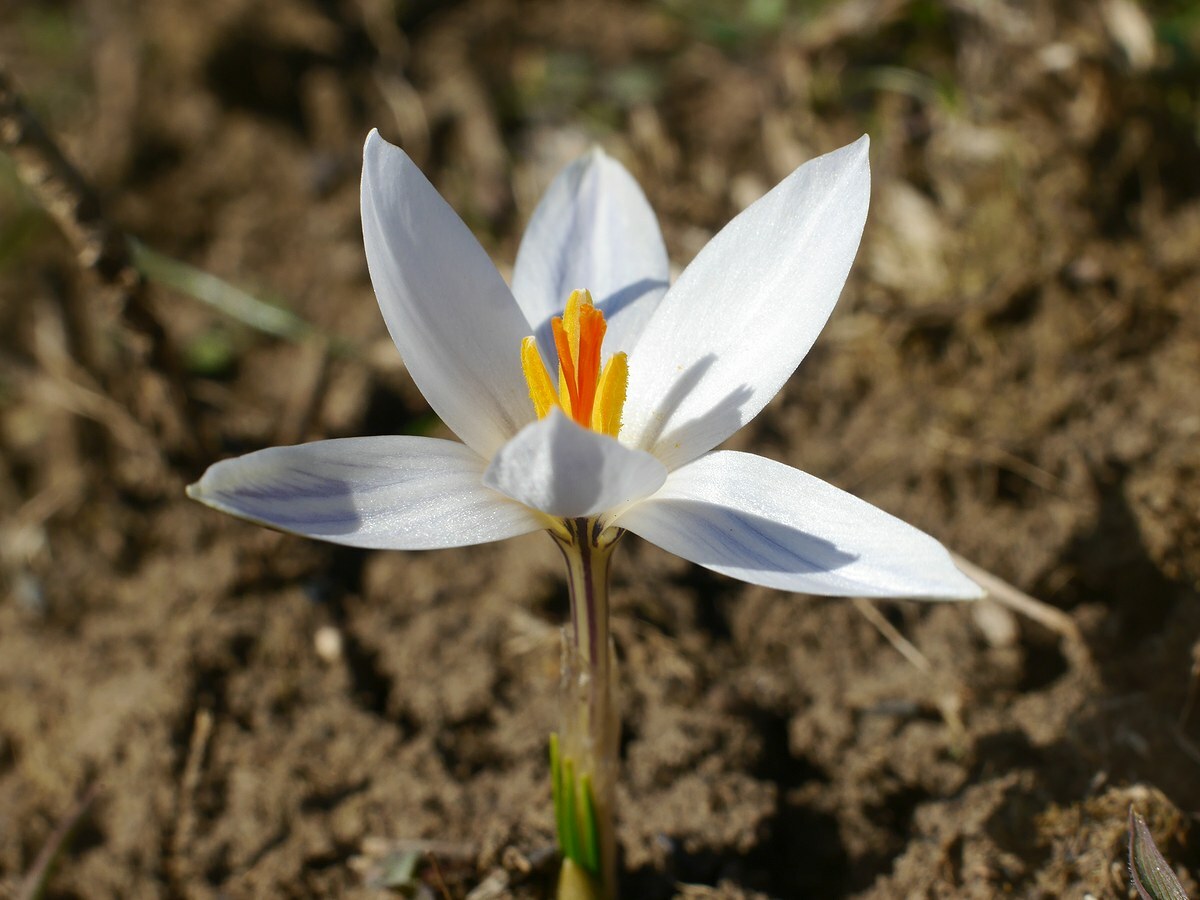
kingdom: Plantae
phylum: Tracheophyta
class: Liliopsida
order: Asparagales
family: Iridaceae
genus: Crocus
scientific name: Crocus reticulatus
